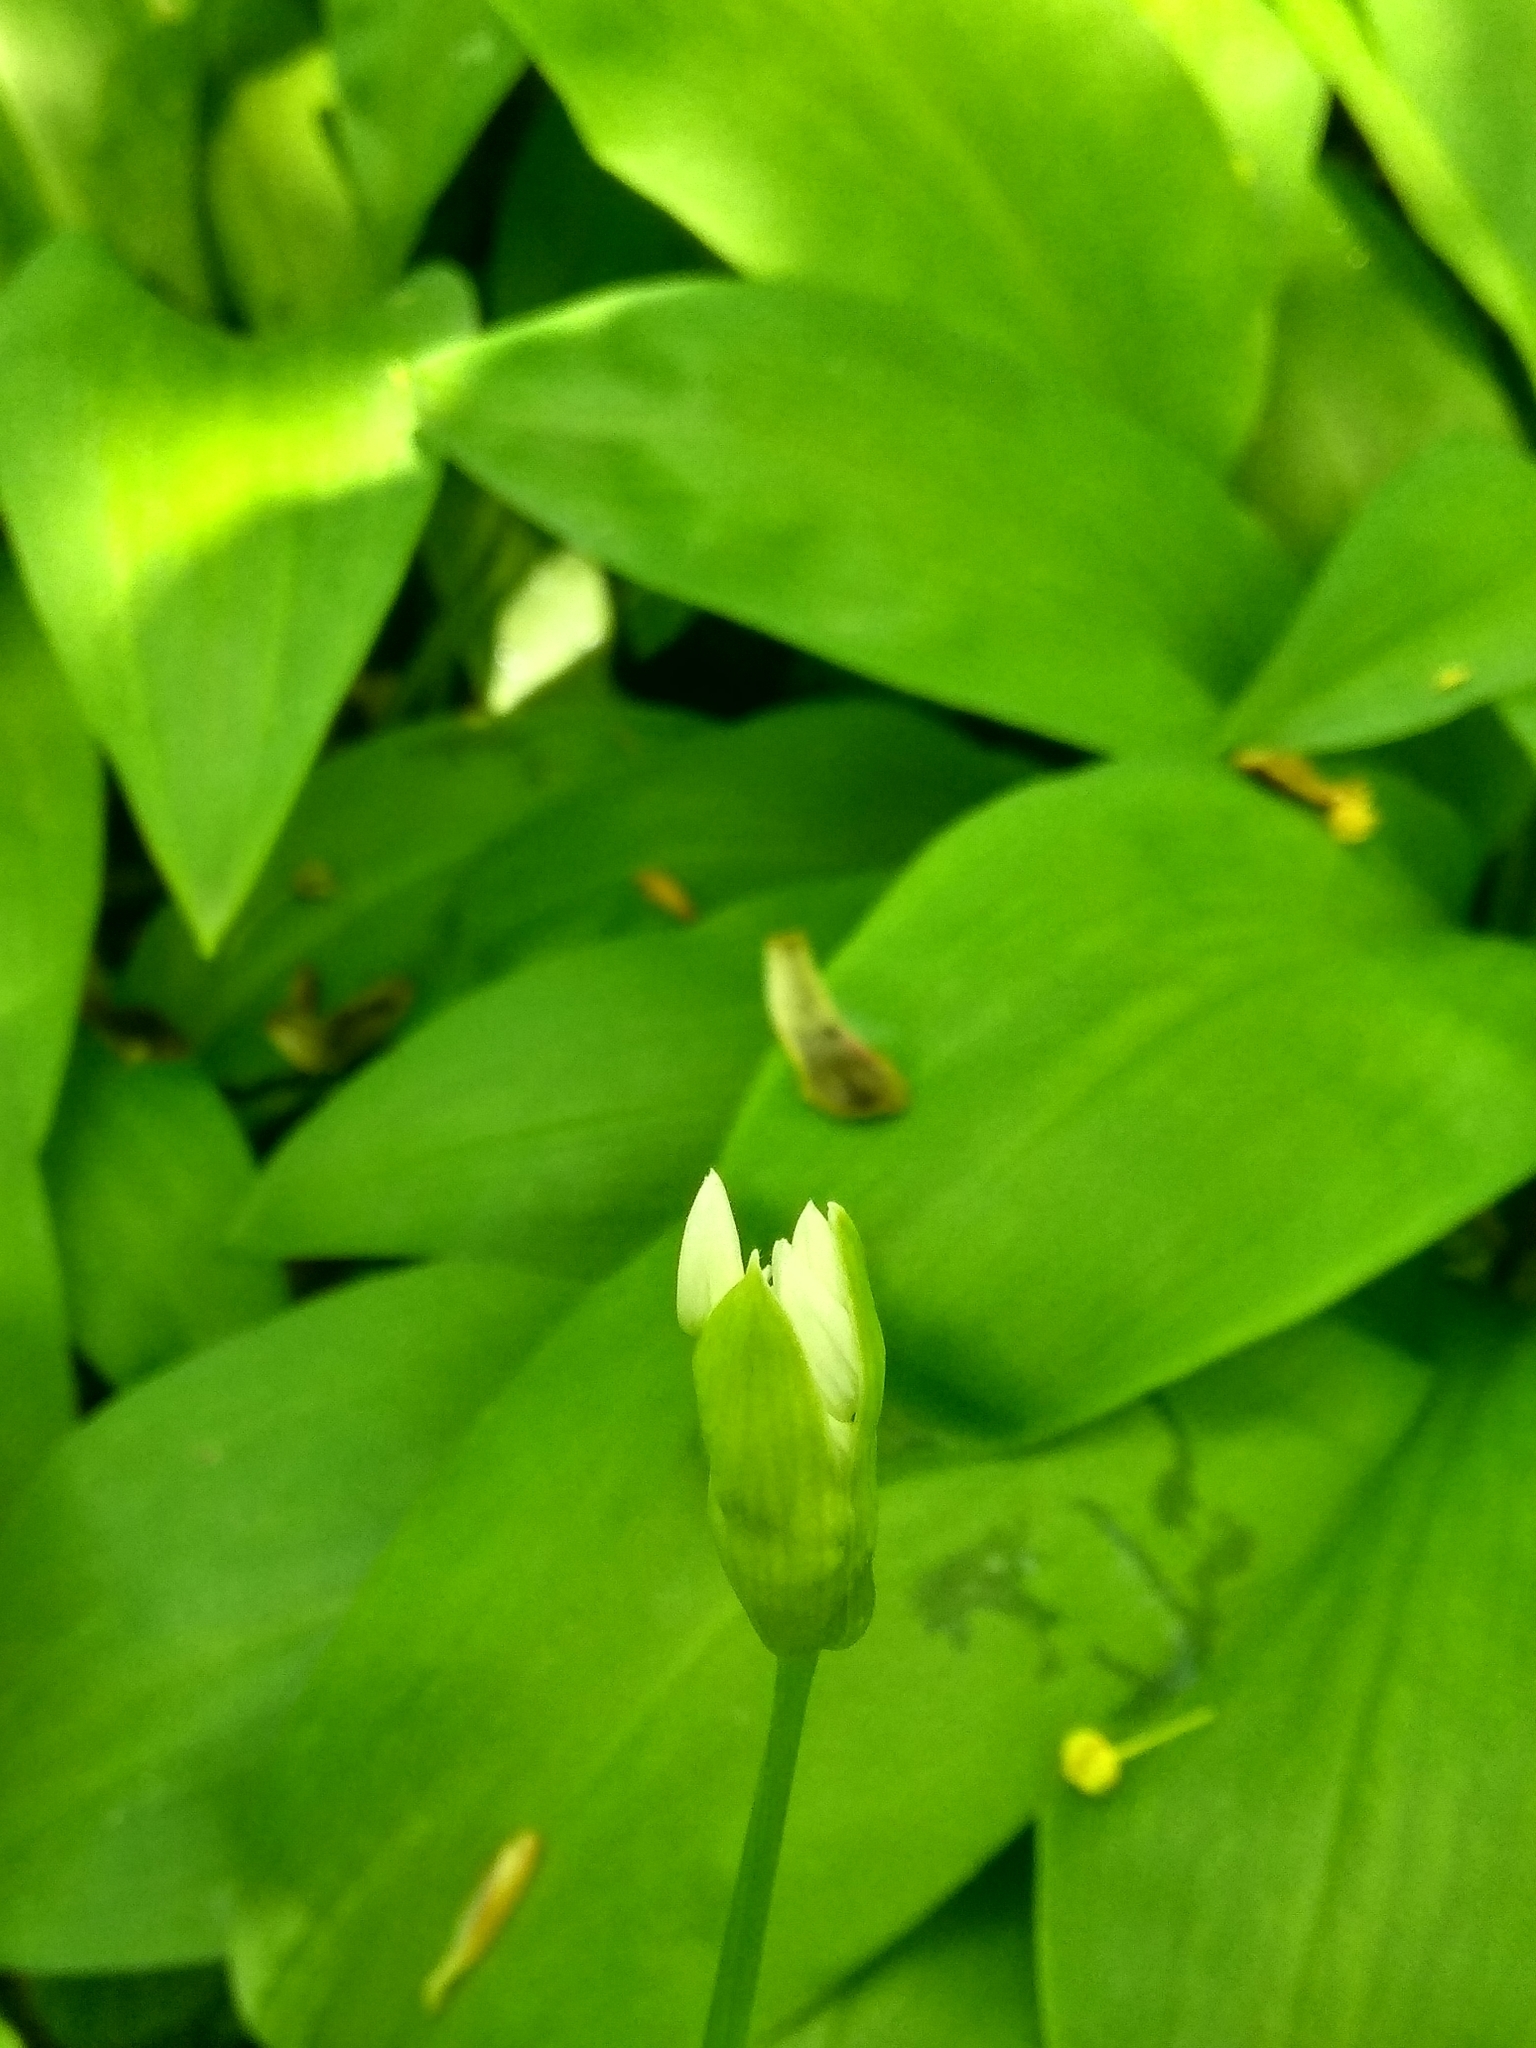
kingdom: Plantae
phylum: Tracheophyta
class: Liliopsida
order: Asparagales
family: Amaryllidaceae
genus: Allium
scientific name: Allium ursinum
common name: Ramsons
